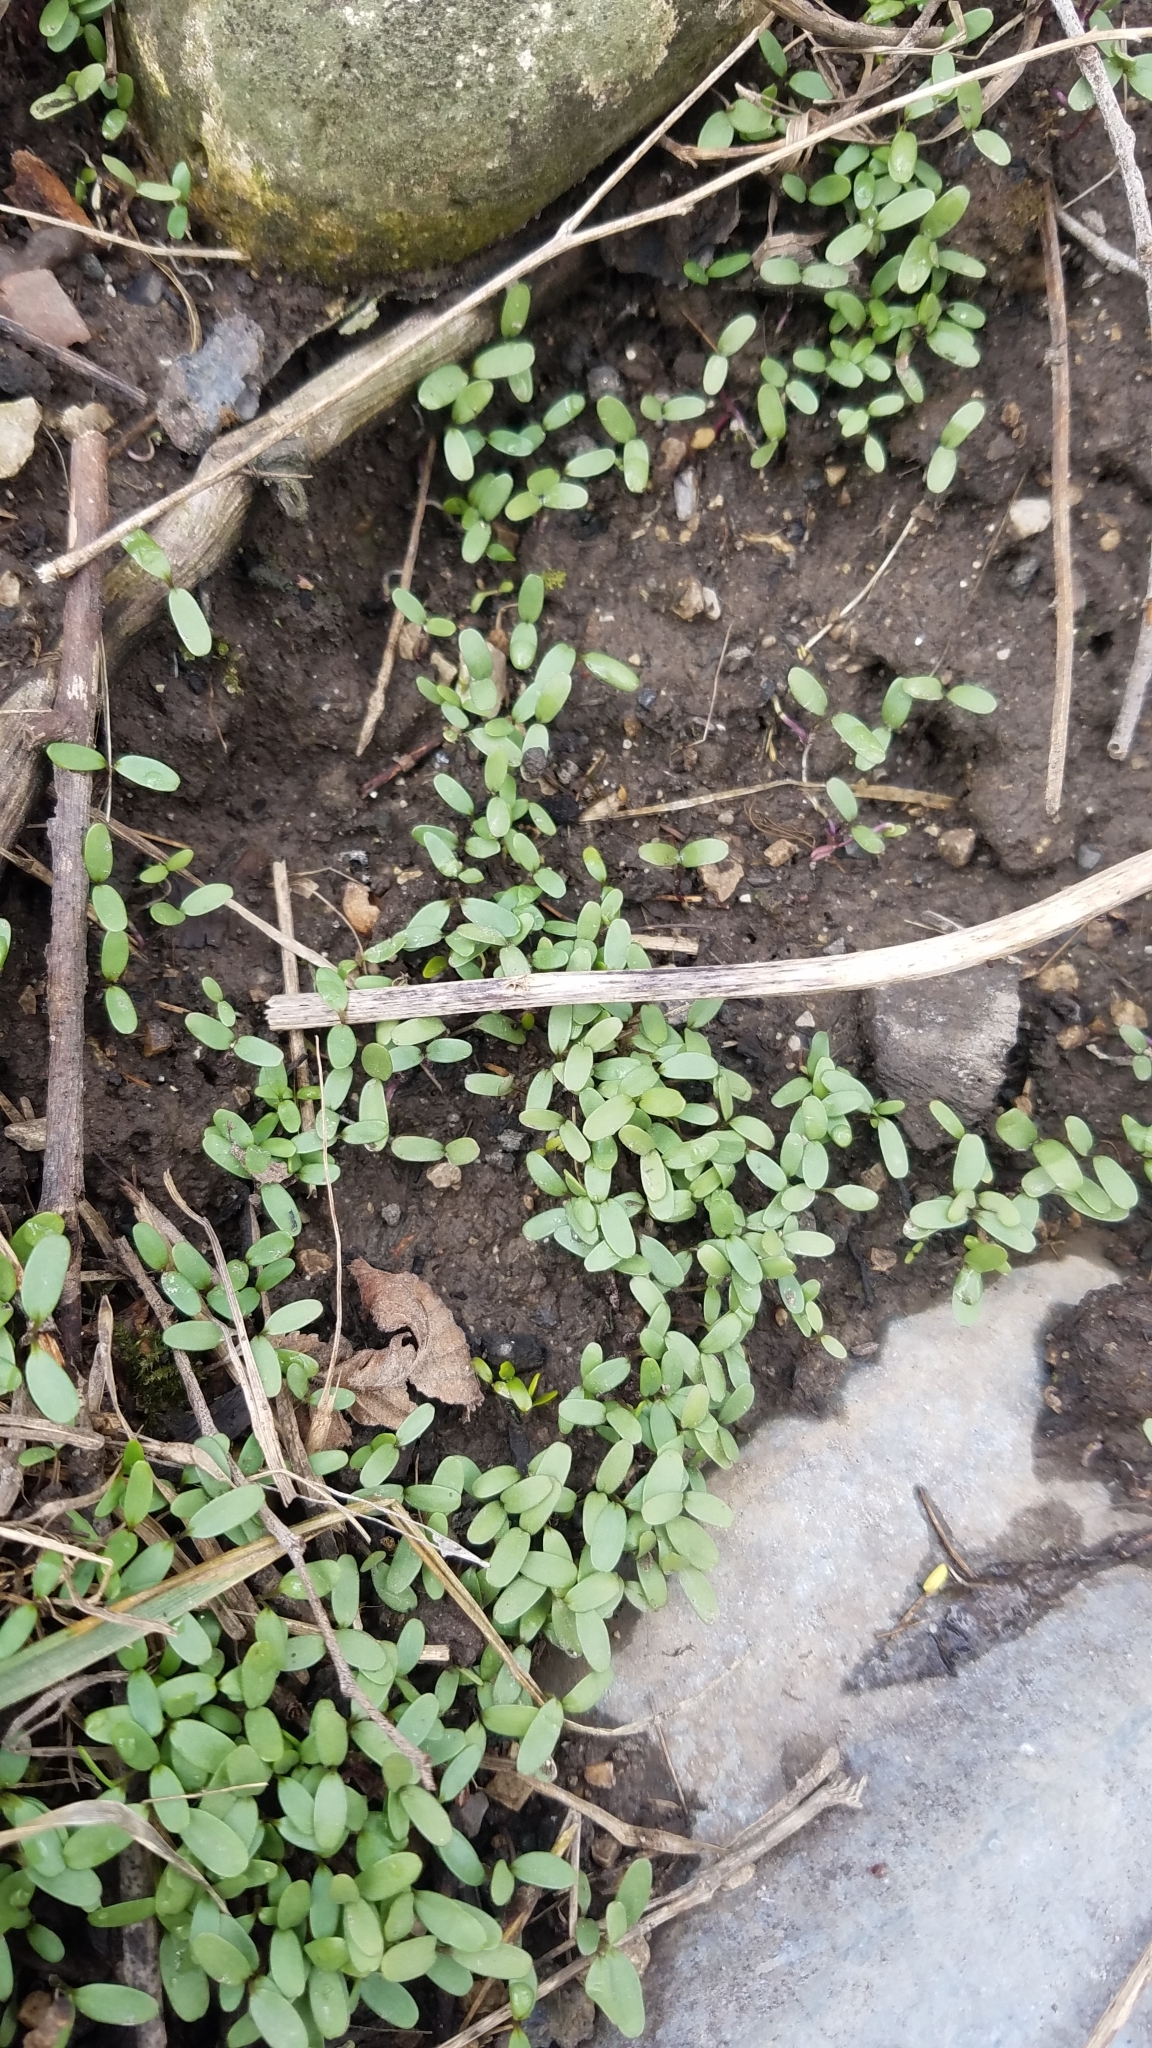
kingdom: Plantae
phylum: Tracheophyta
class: Magnoliopsida
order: Brassicales
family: Brassicaceae
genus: Alliaria
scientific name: Alliaria petiolata
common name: Garlic mustard
